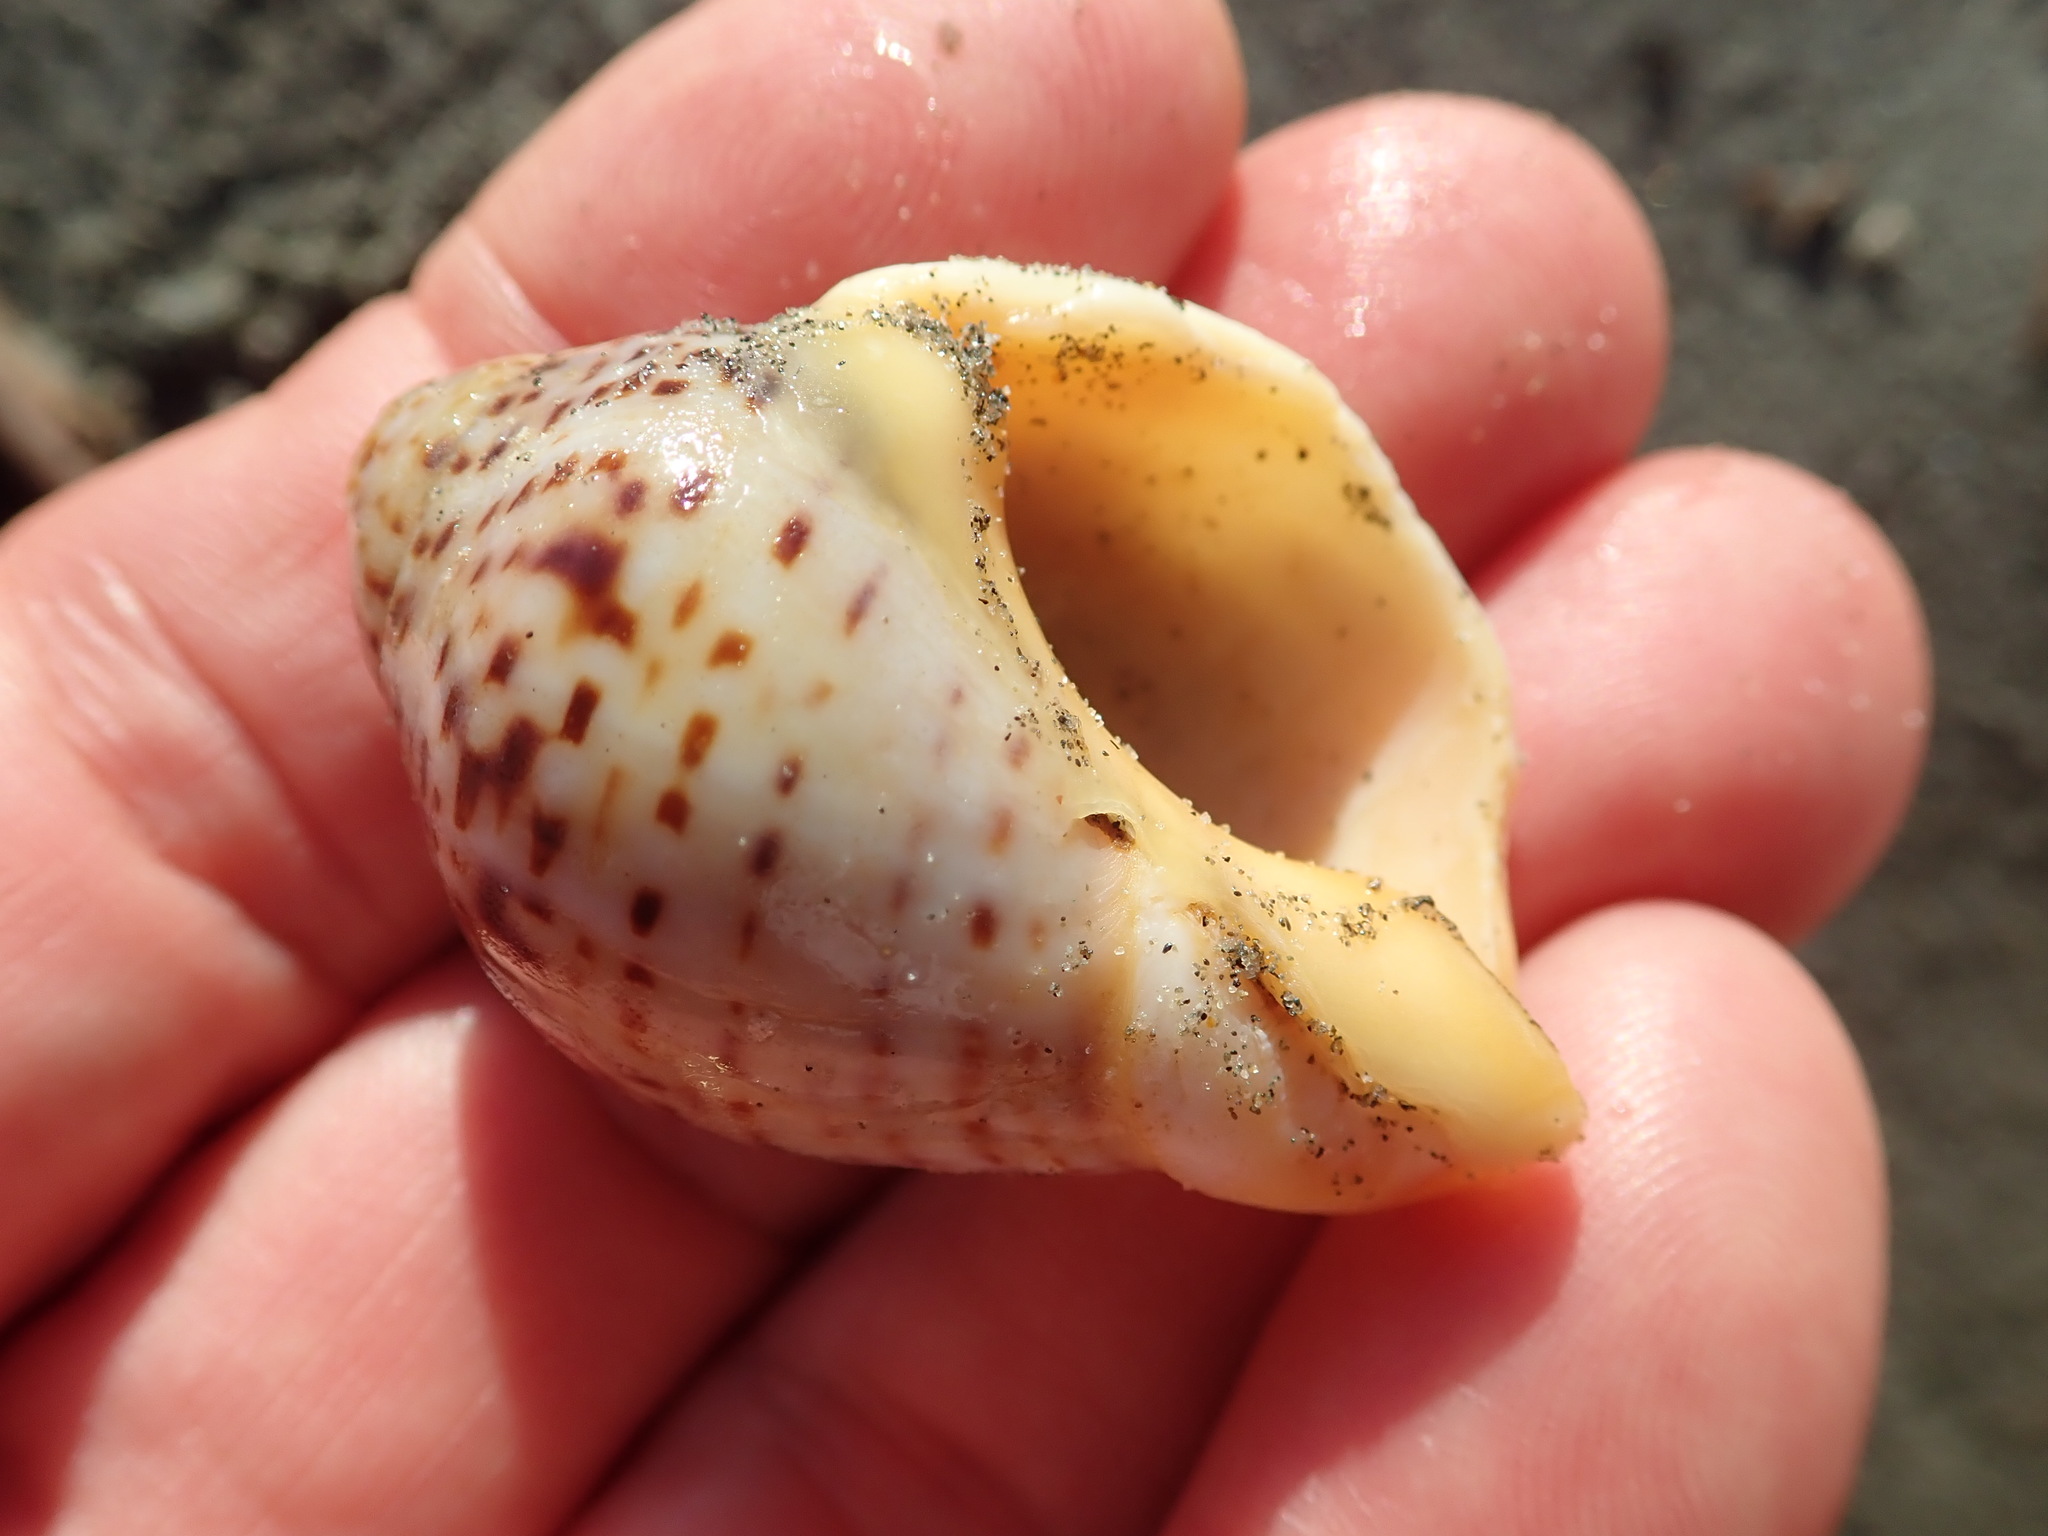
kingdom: Animalia
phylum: Mollusca
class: Gastropoda
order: Neogastropoda
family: Cominellidae
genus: Cominella
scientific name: Cominella adspersa
